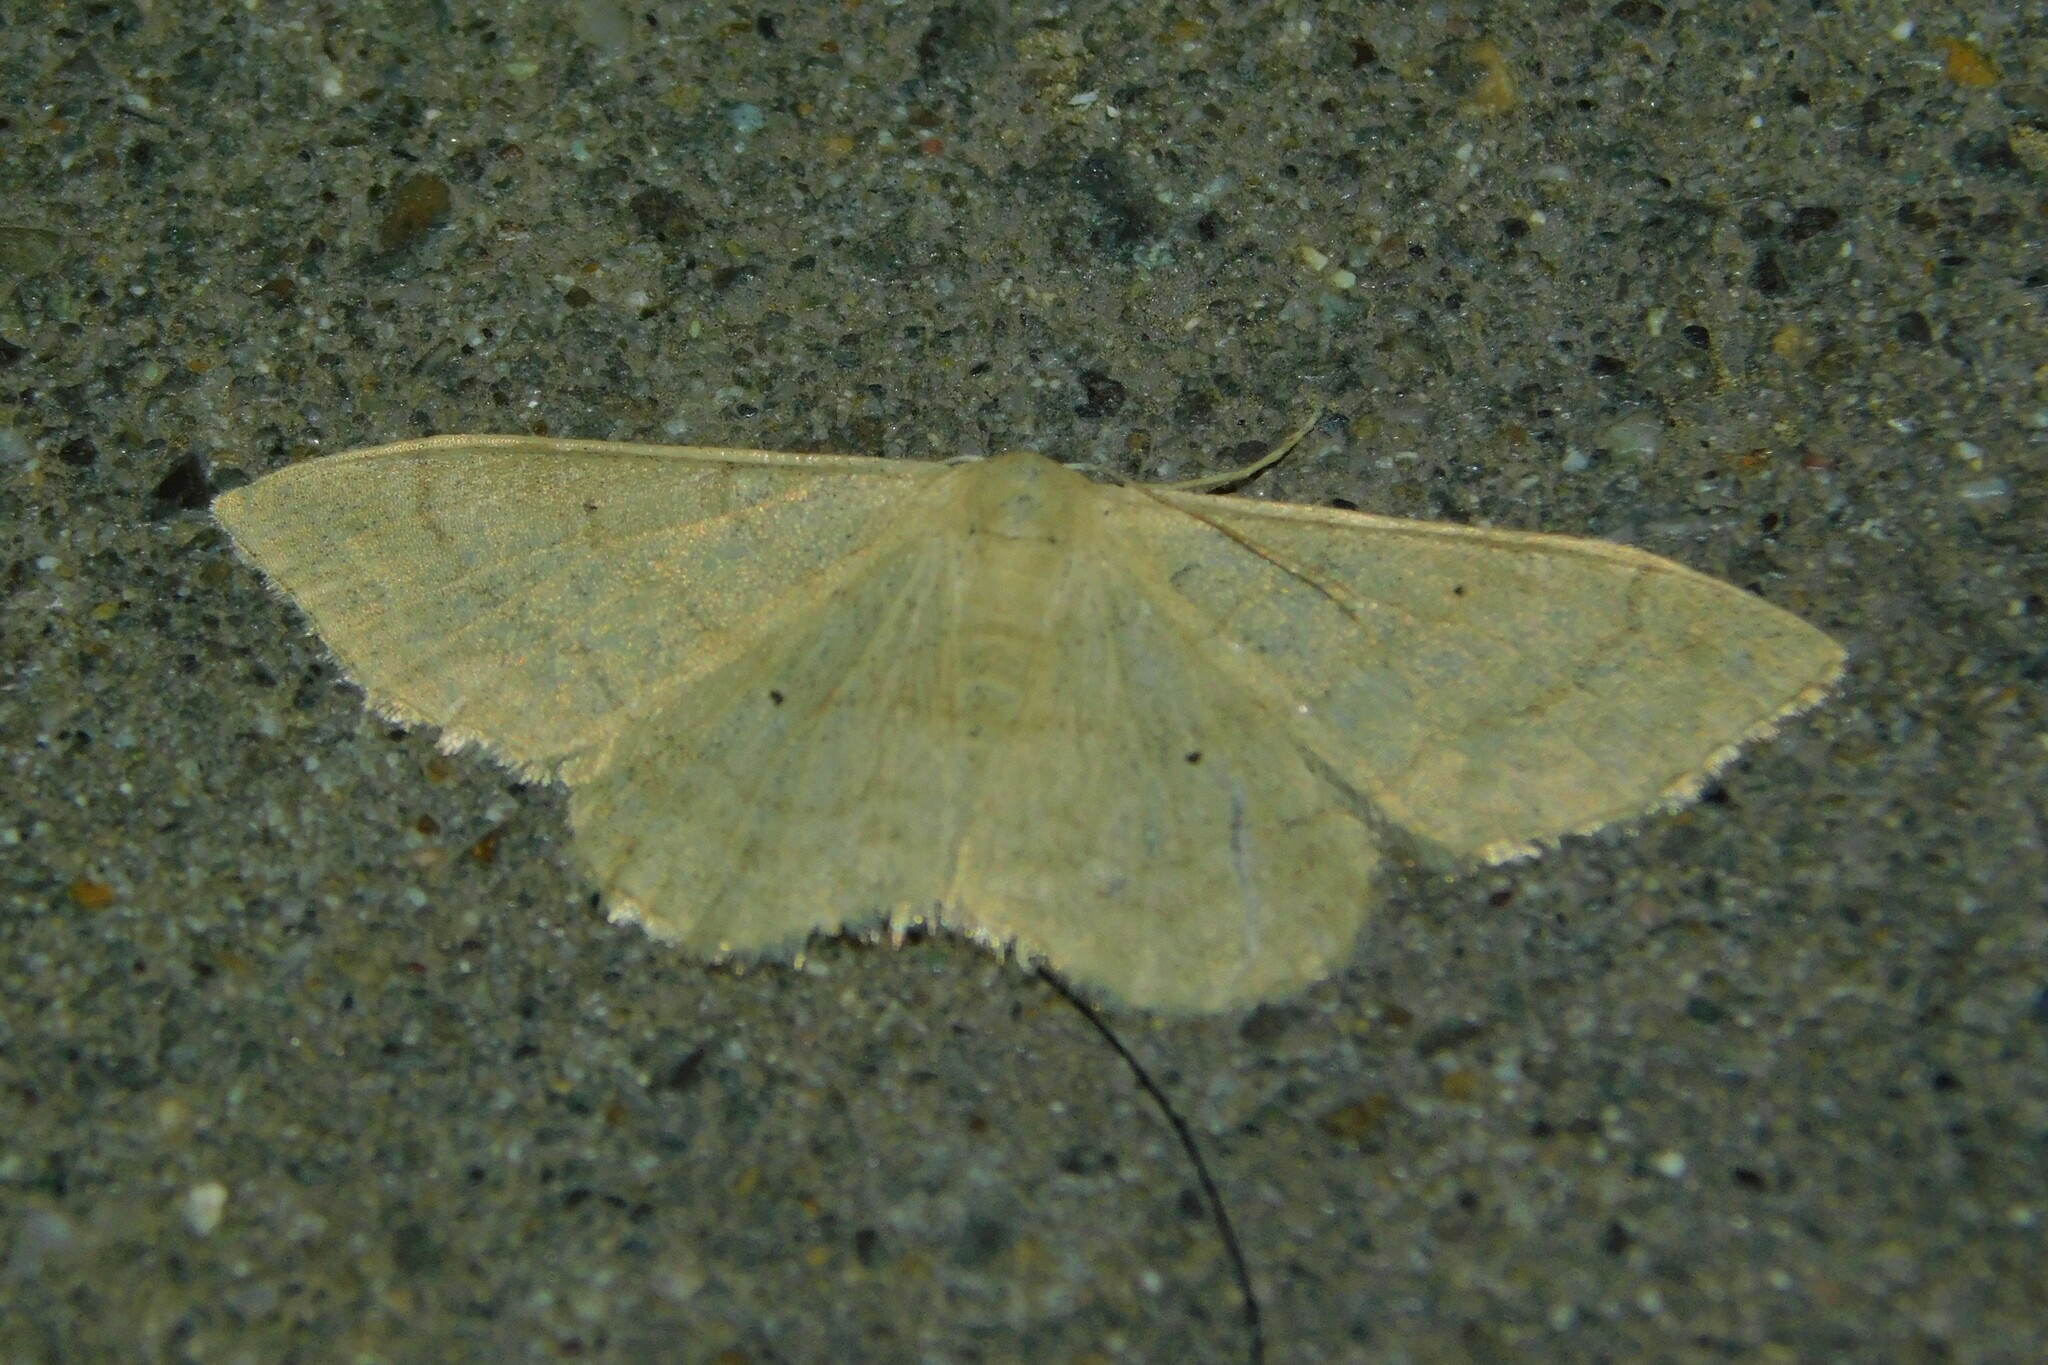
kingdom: Animalia
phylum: Arthropoda
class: Insecta
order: Lepidoptera
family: Geometridae
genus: Idaea
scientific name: Idaea straminata
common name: Plain wave
